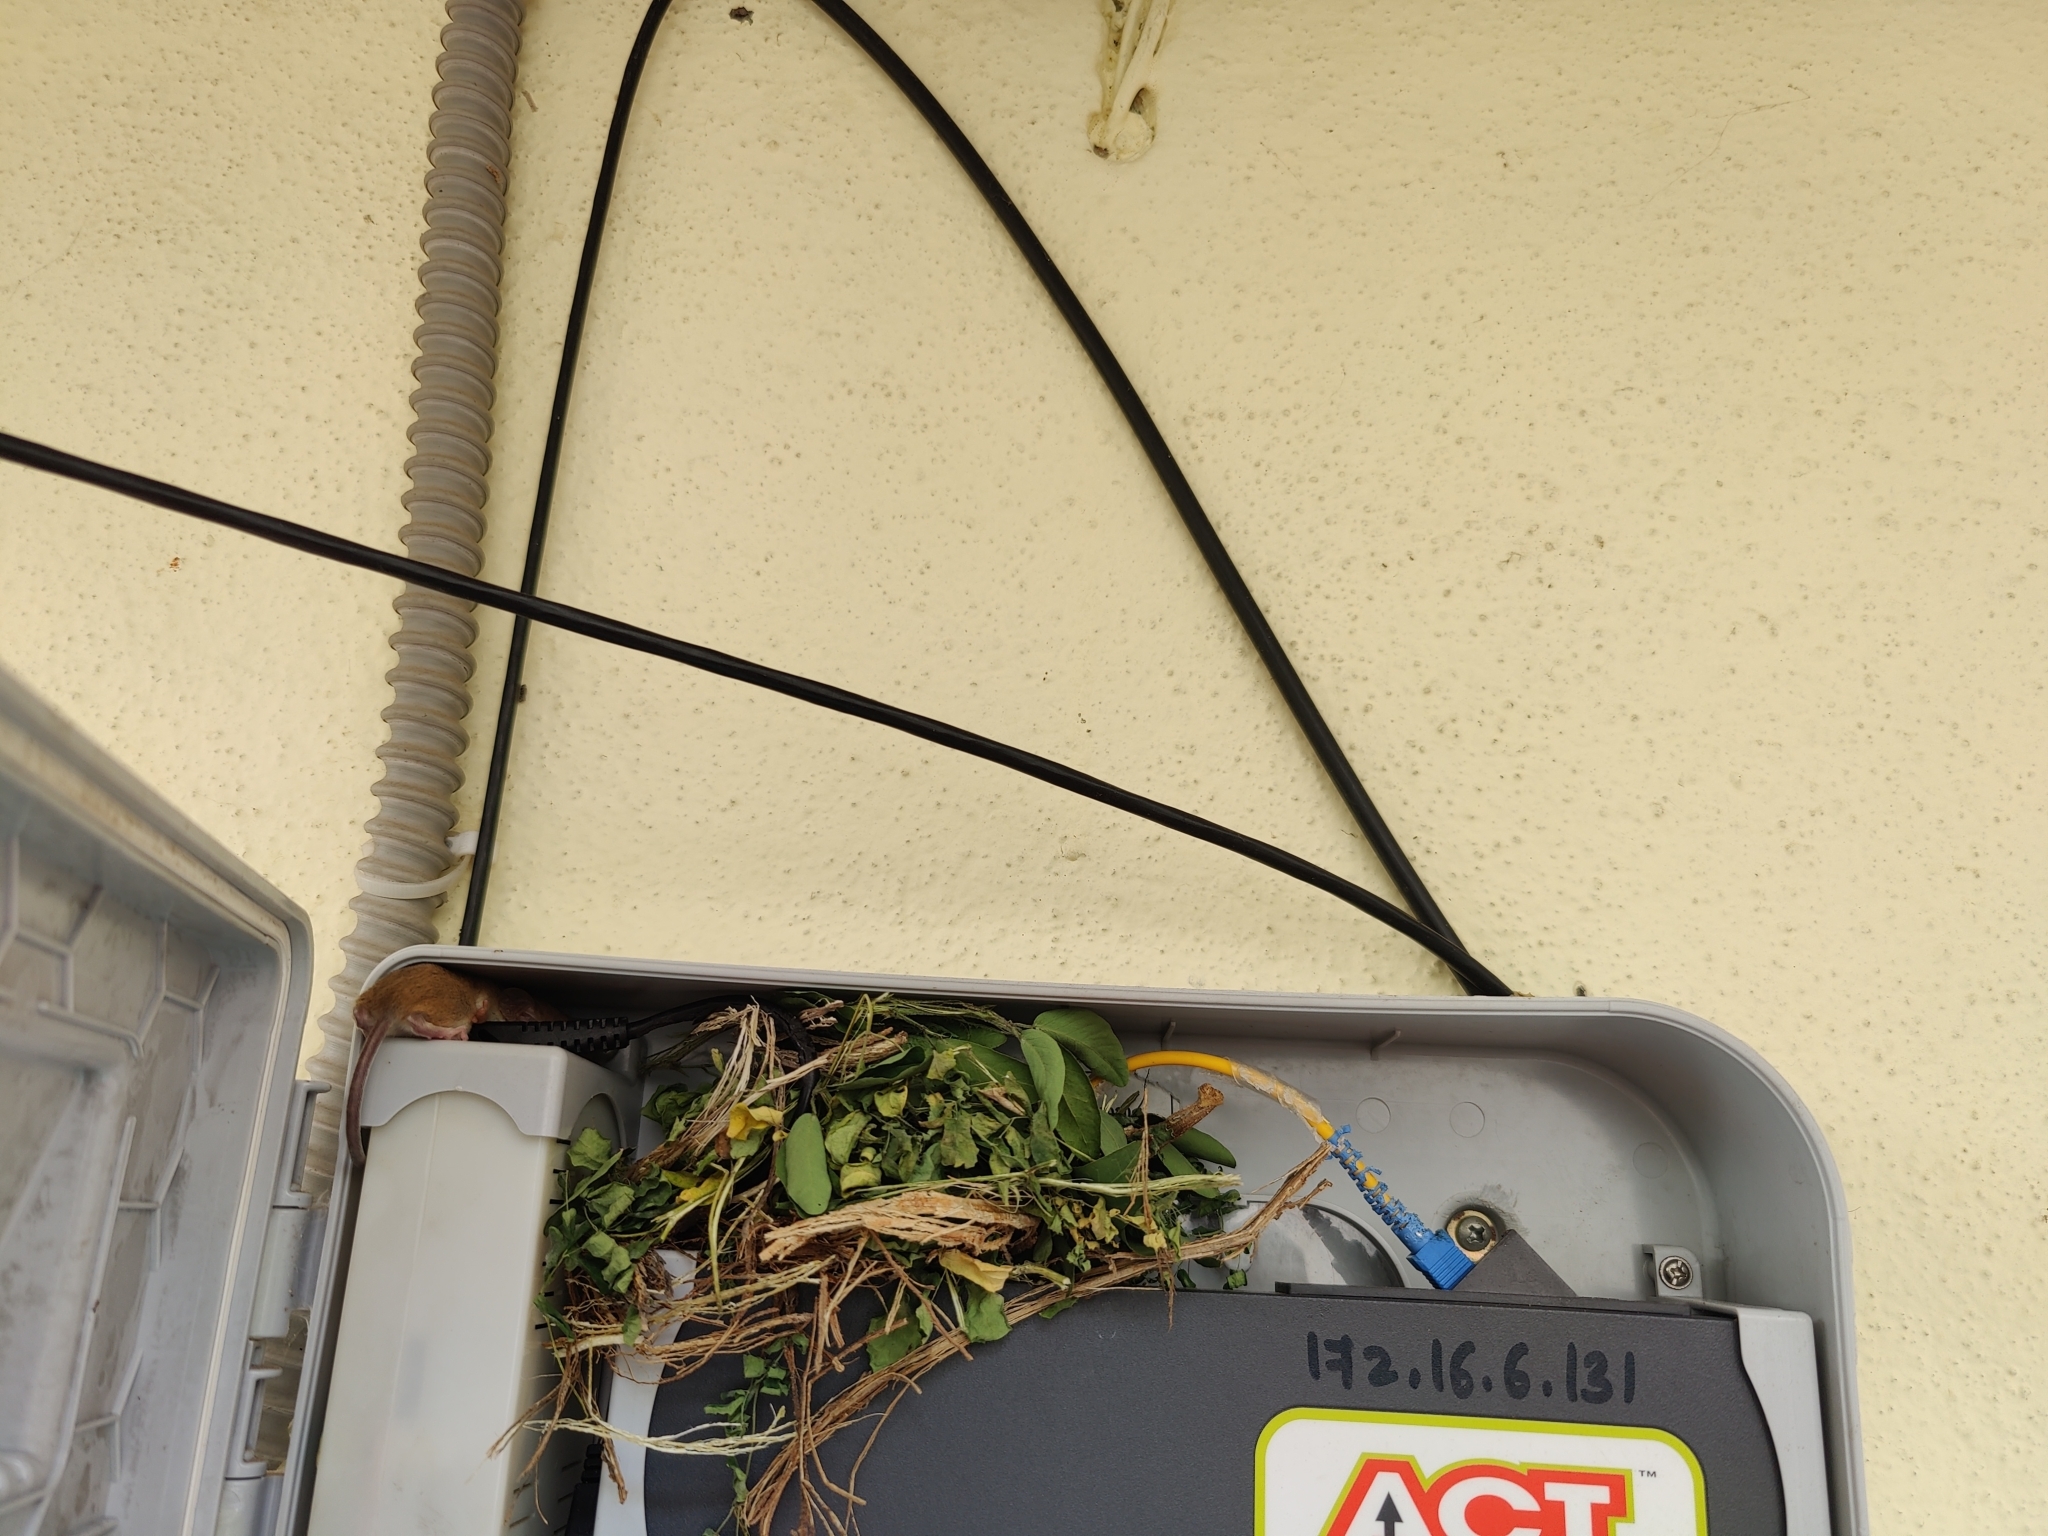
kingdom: Animalia
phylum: Chordata
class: Mammalia
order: Rodentia
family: Muridae
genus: Vandeleuria
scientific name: Vandeleuria oleracea
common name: Indomalayan vandeleuria
